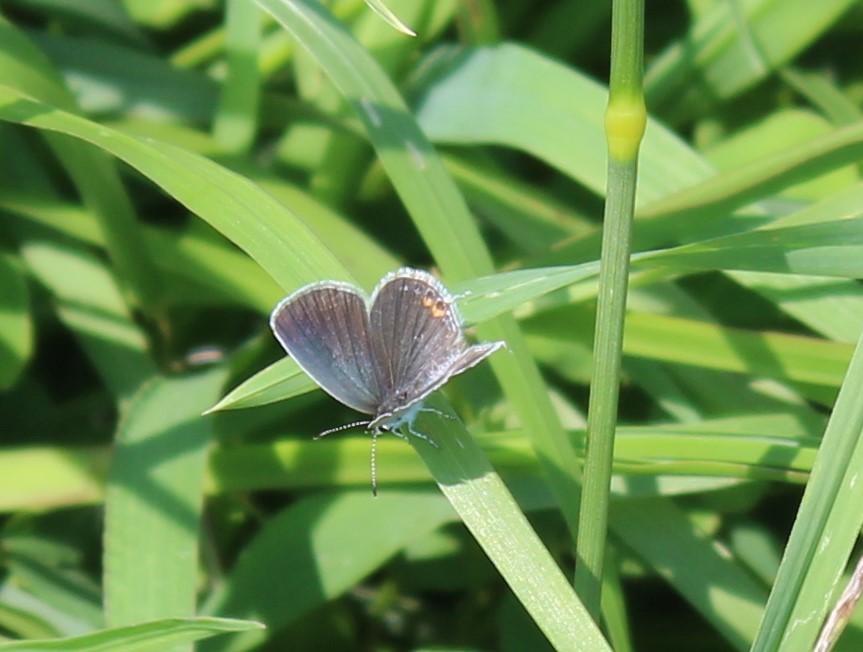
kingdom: Animalia
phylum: Arthropoda
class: Insecta
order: Lepidoptera
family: Lycaenidae
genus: Elkalyce
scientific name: Elkalyce comyntas
